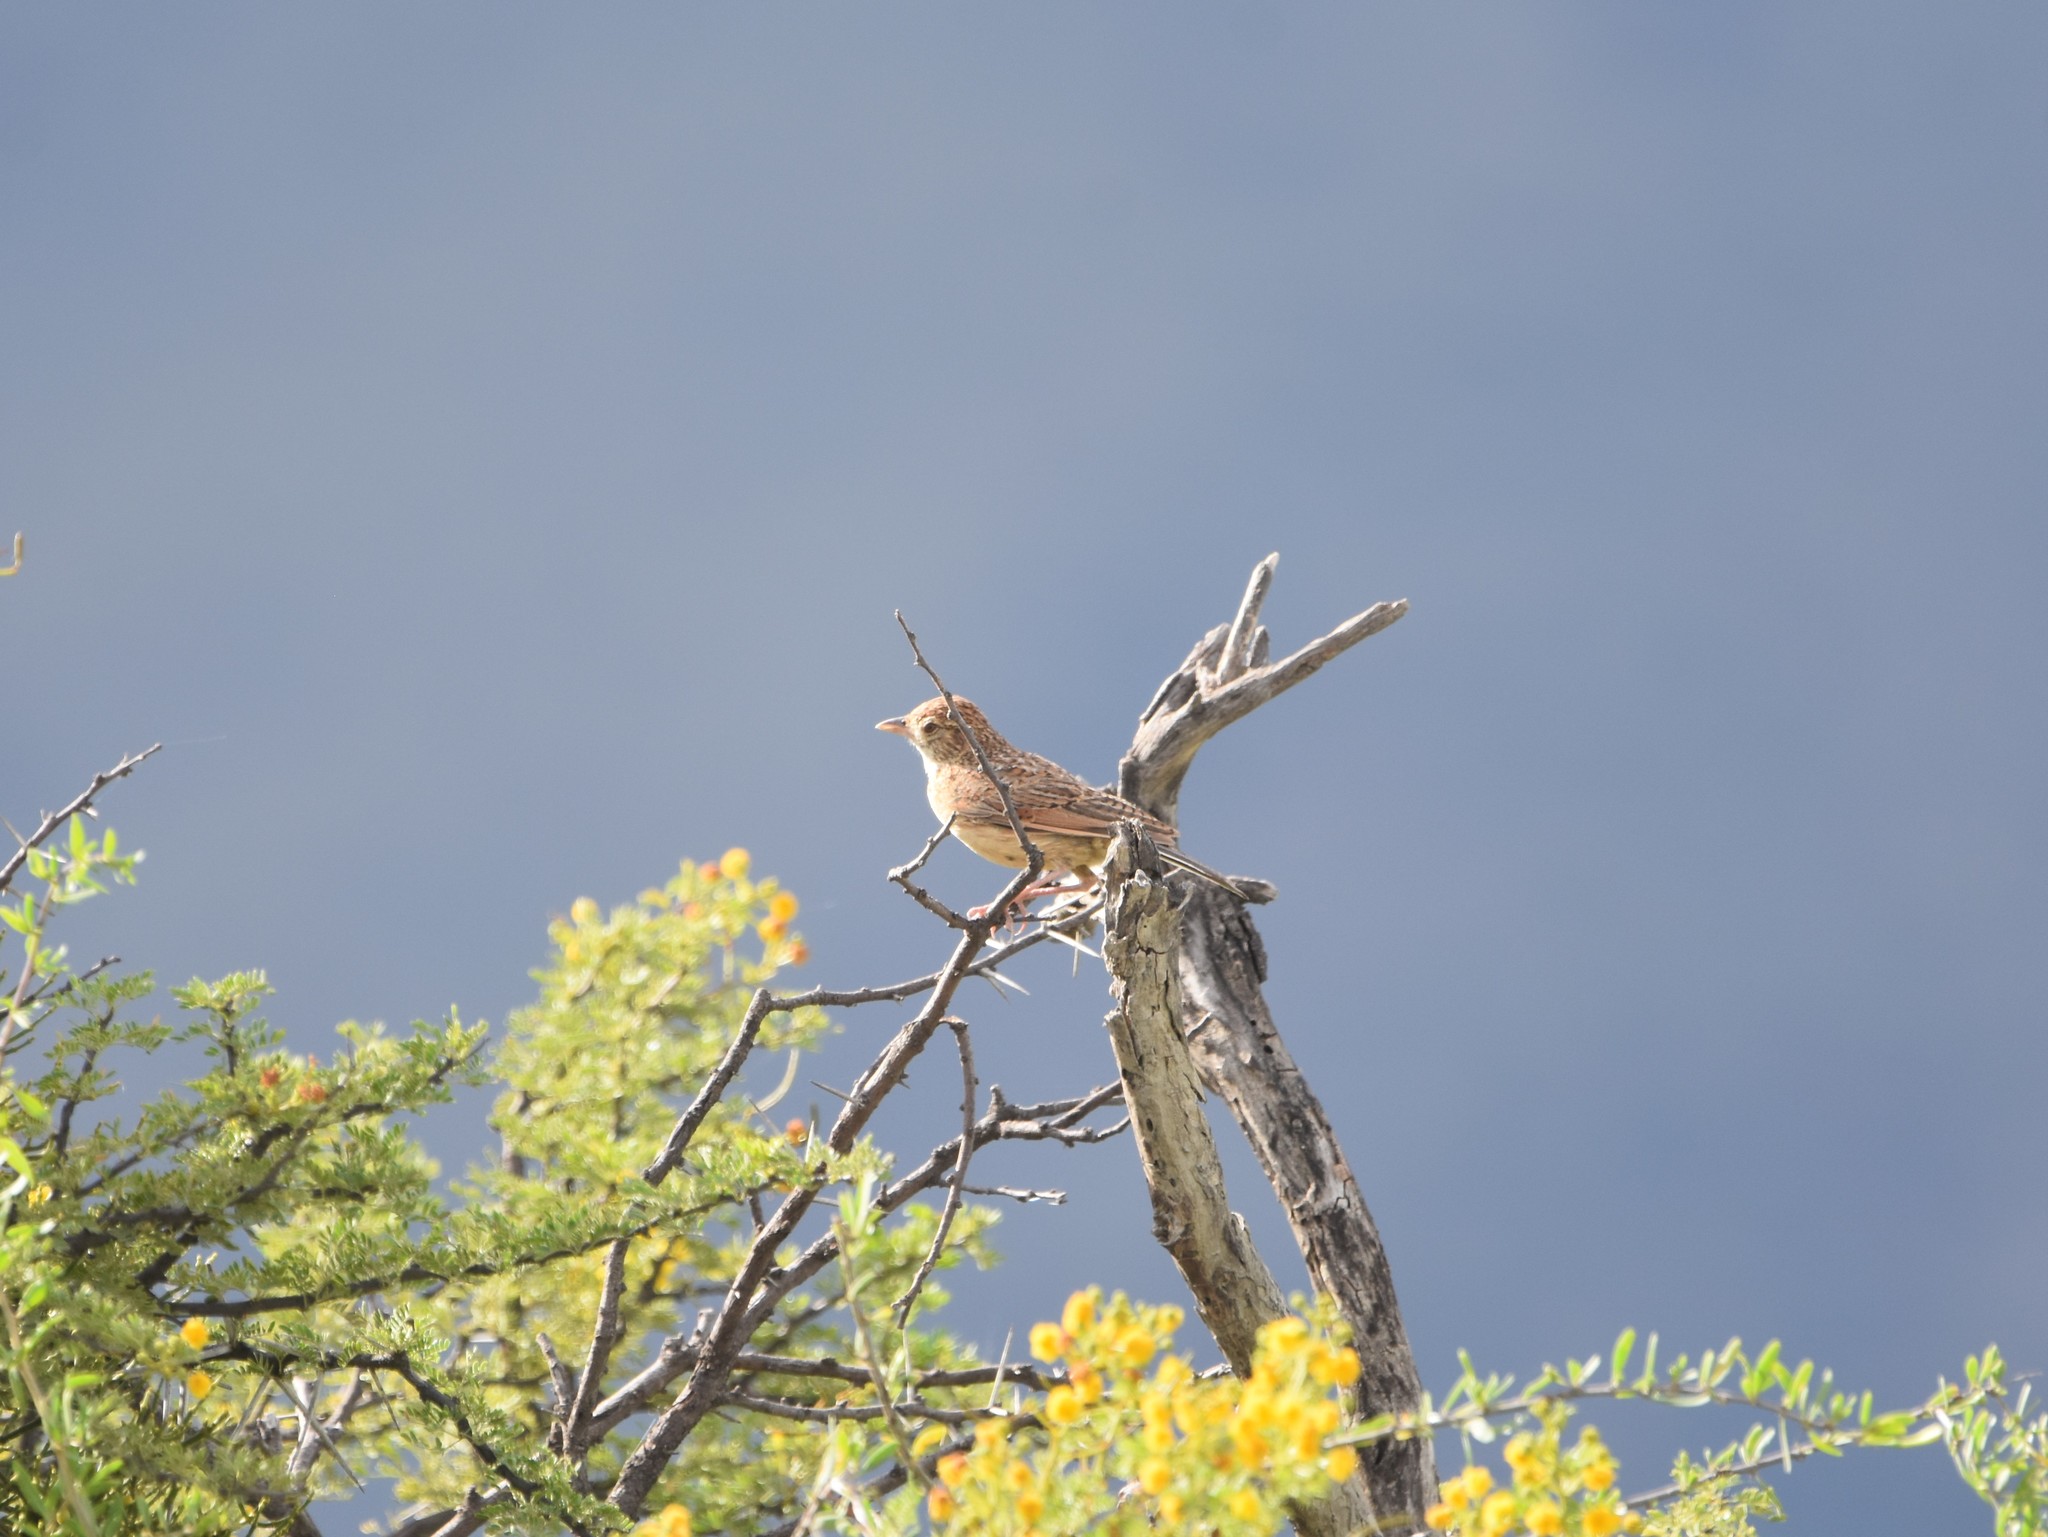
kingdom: Animalia
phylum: Chordata
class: Aves
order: Passeriformes
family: Alaudidae
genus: Mirafra
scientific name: Mirafra fasciolata
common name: Eastern clapper lark
